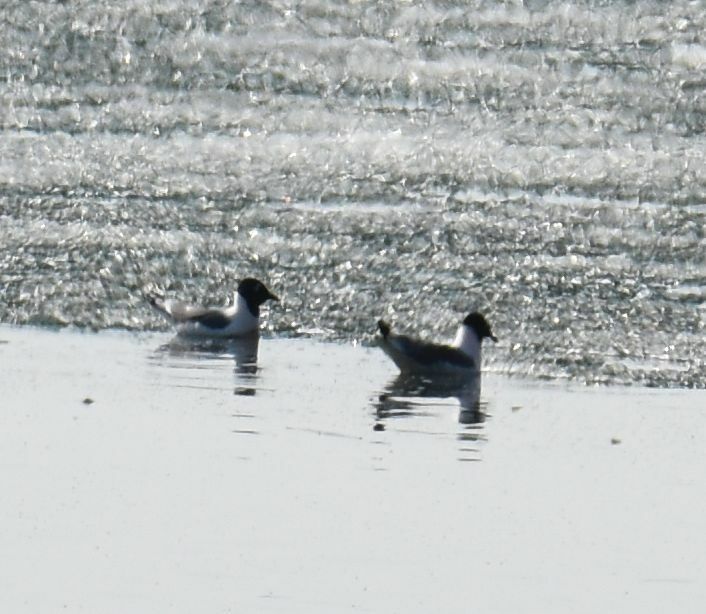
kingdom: Animalia
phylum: Chordata
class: Aves
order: Charadriiformes
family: Laridae
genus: Leucophaeus
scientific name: Leucophaeus pipixcan
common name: Franklin's gull
